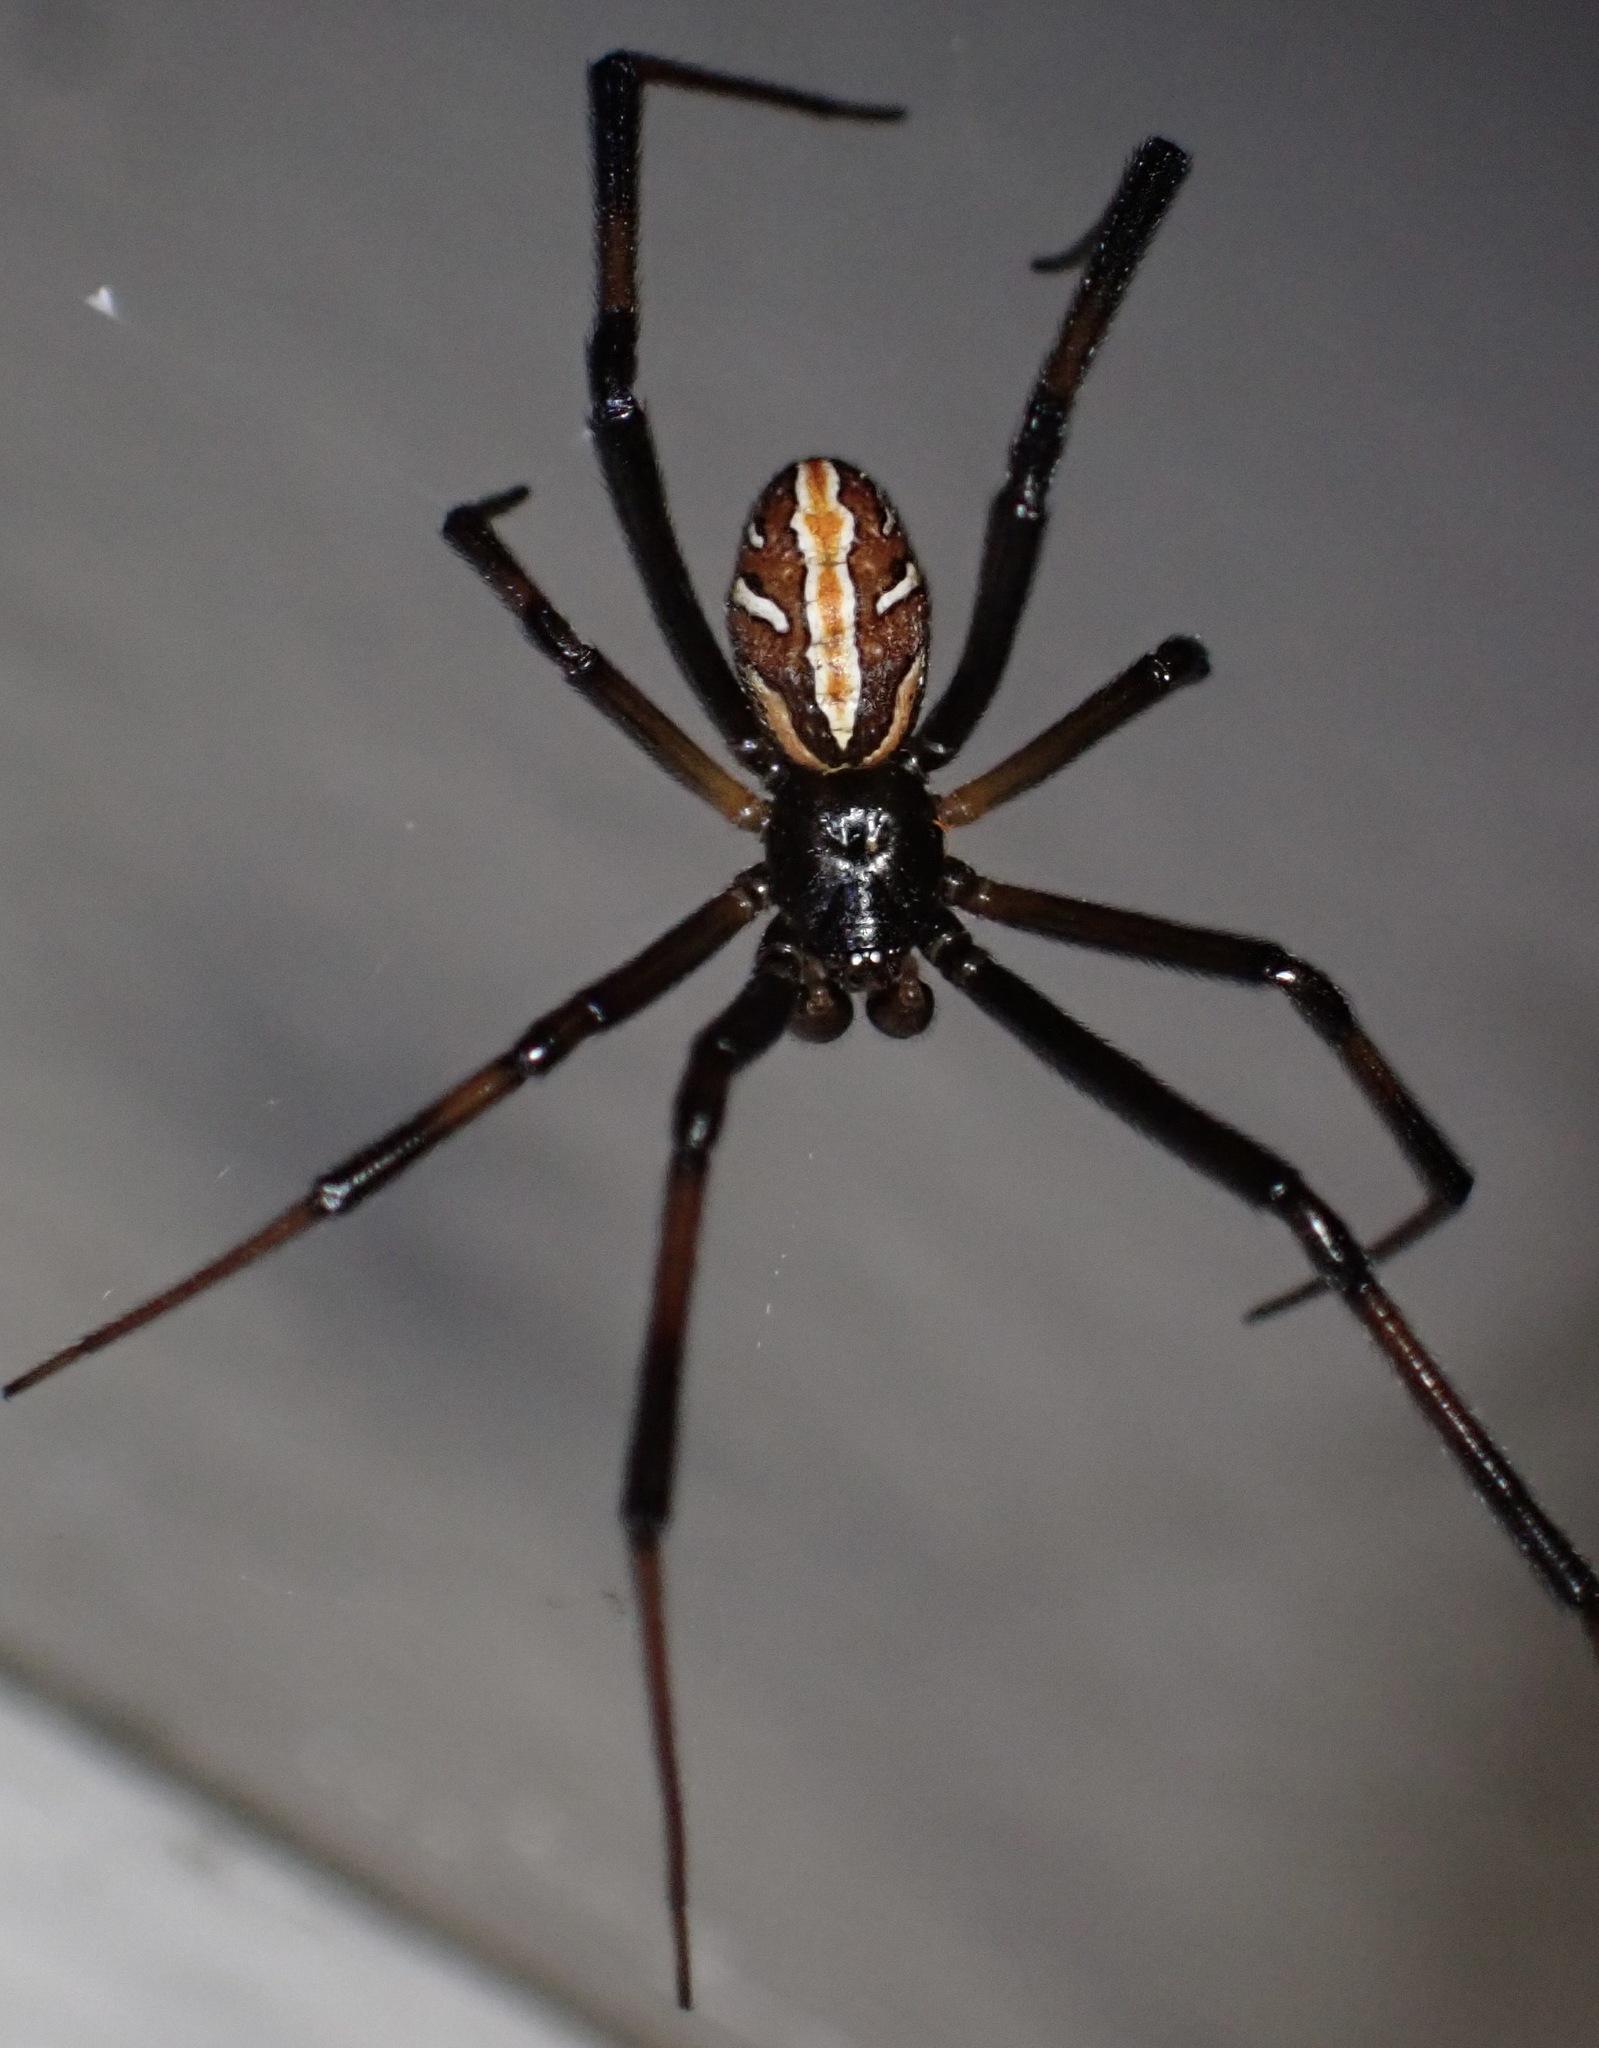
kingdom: Animalia
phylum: Arthropoda
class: Arachnida
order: Araneae
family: Theridiidae
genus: Latrodectus
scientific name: Latrodectus hesperus
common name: Western black widow
